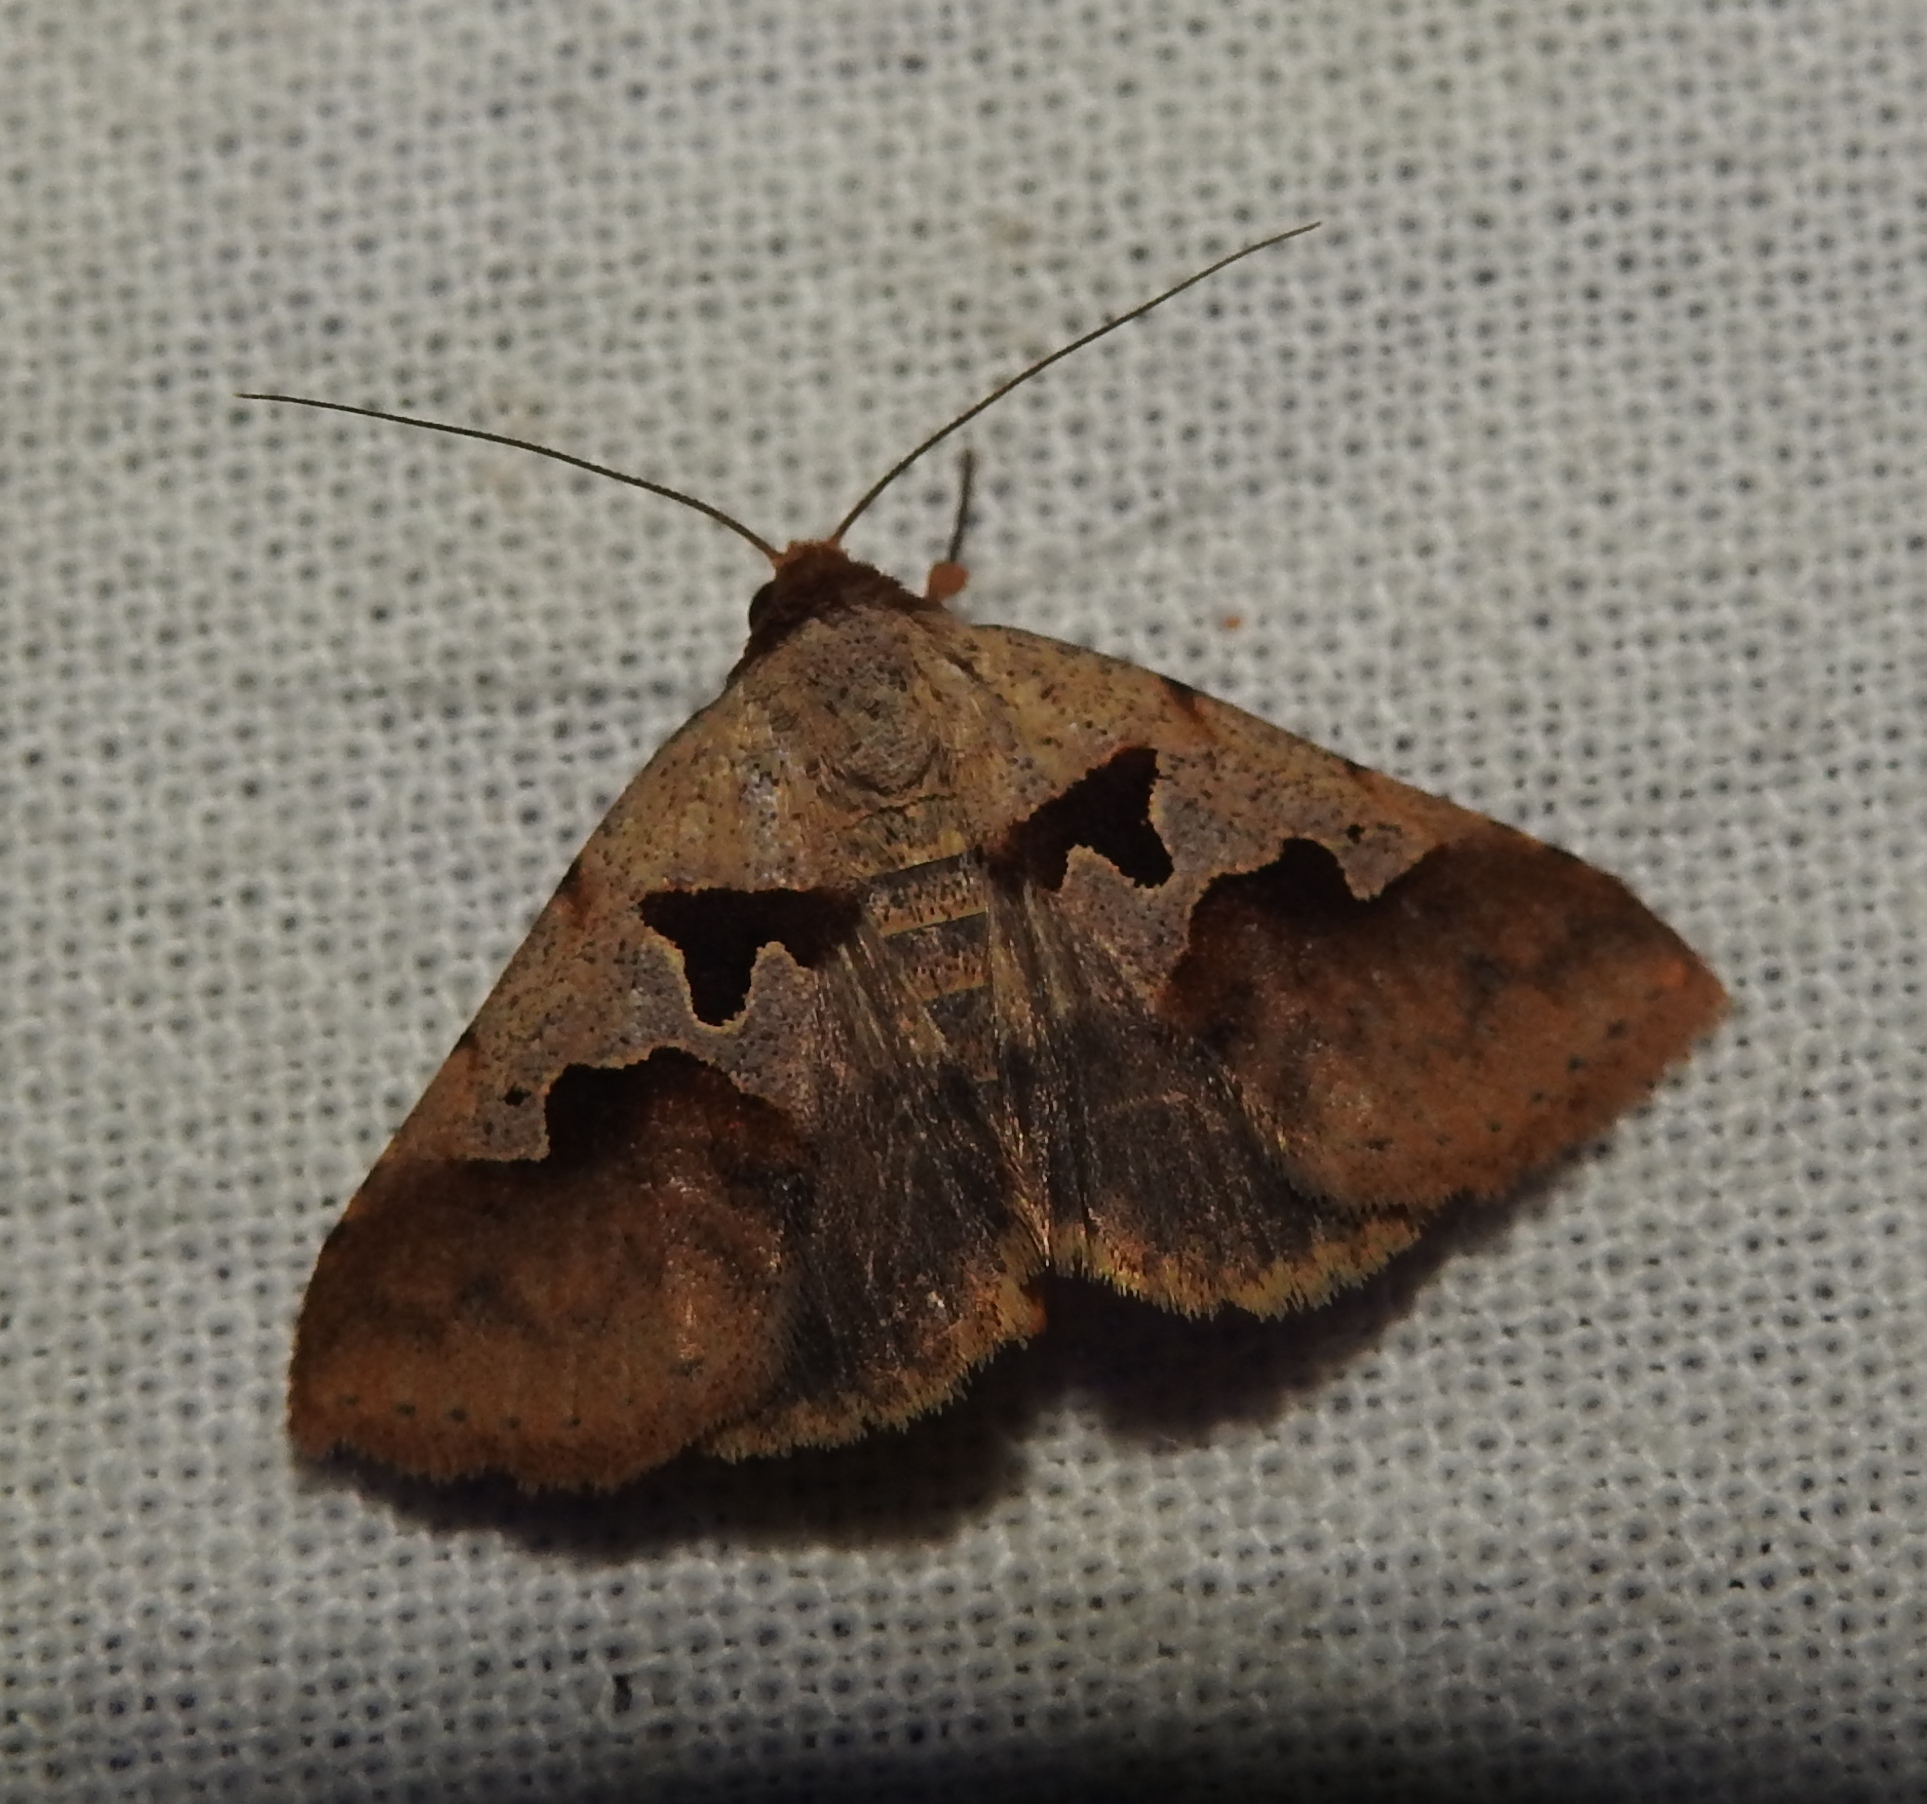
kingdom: Animalia
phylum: Arthropoda
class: Insecta
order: Lepidoptera
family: Erebidae
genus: Crithote
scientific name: Crithote horridipes
